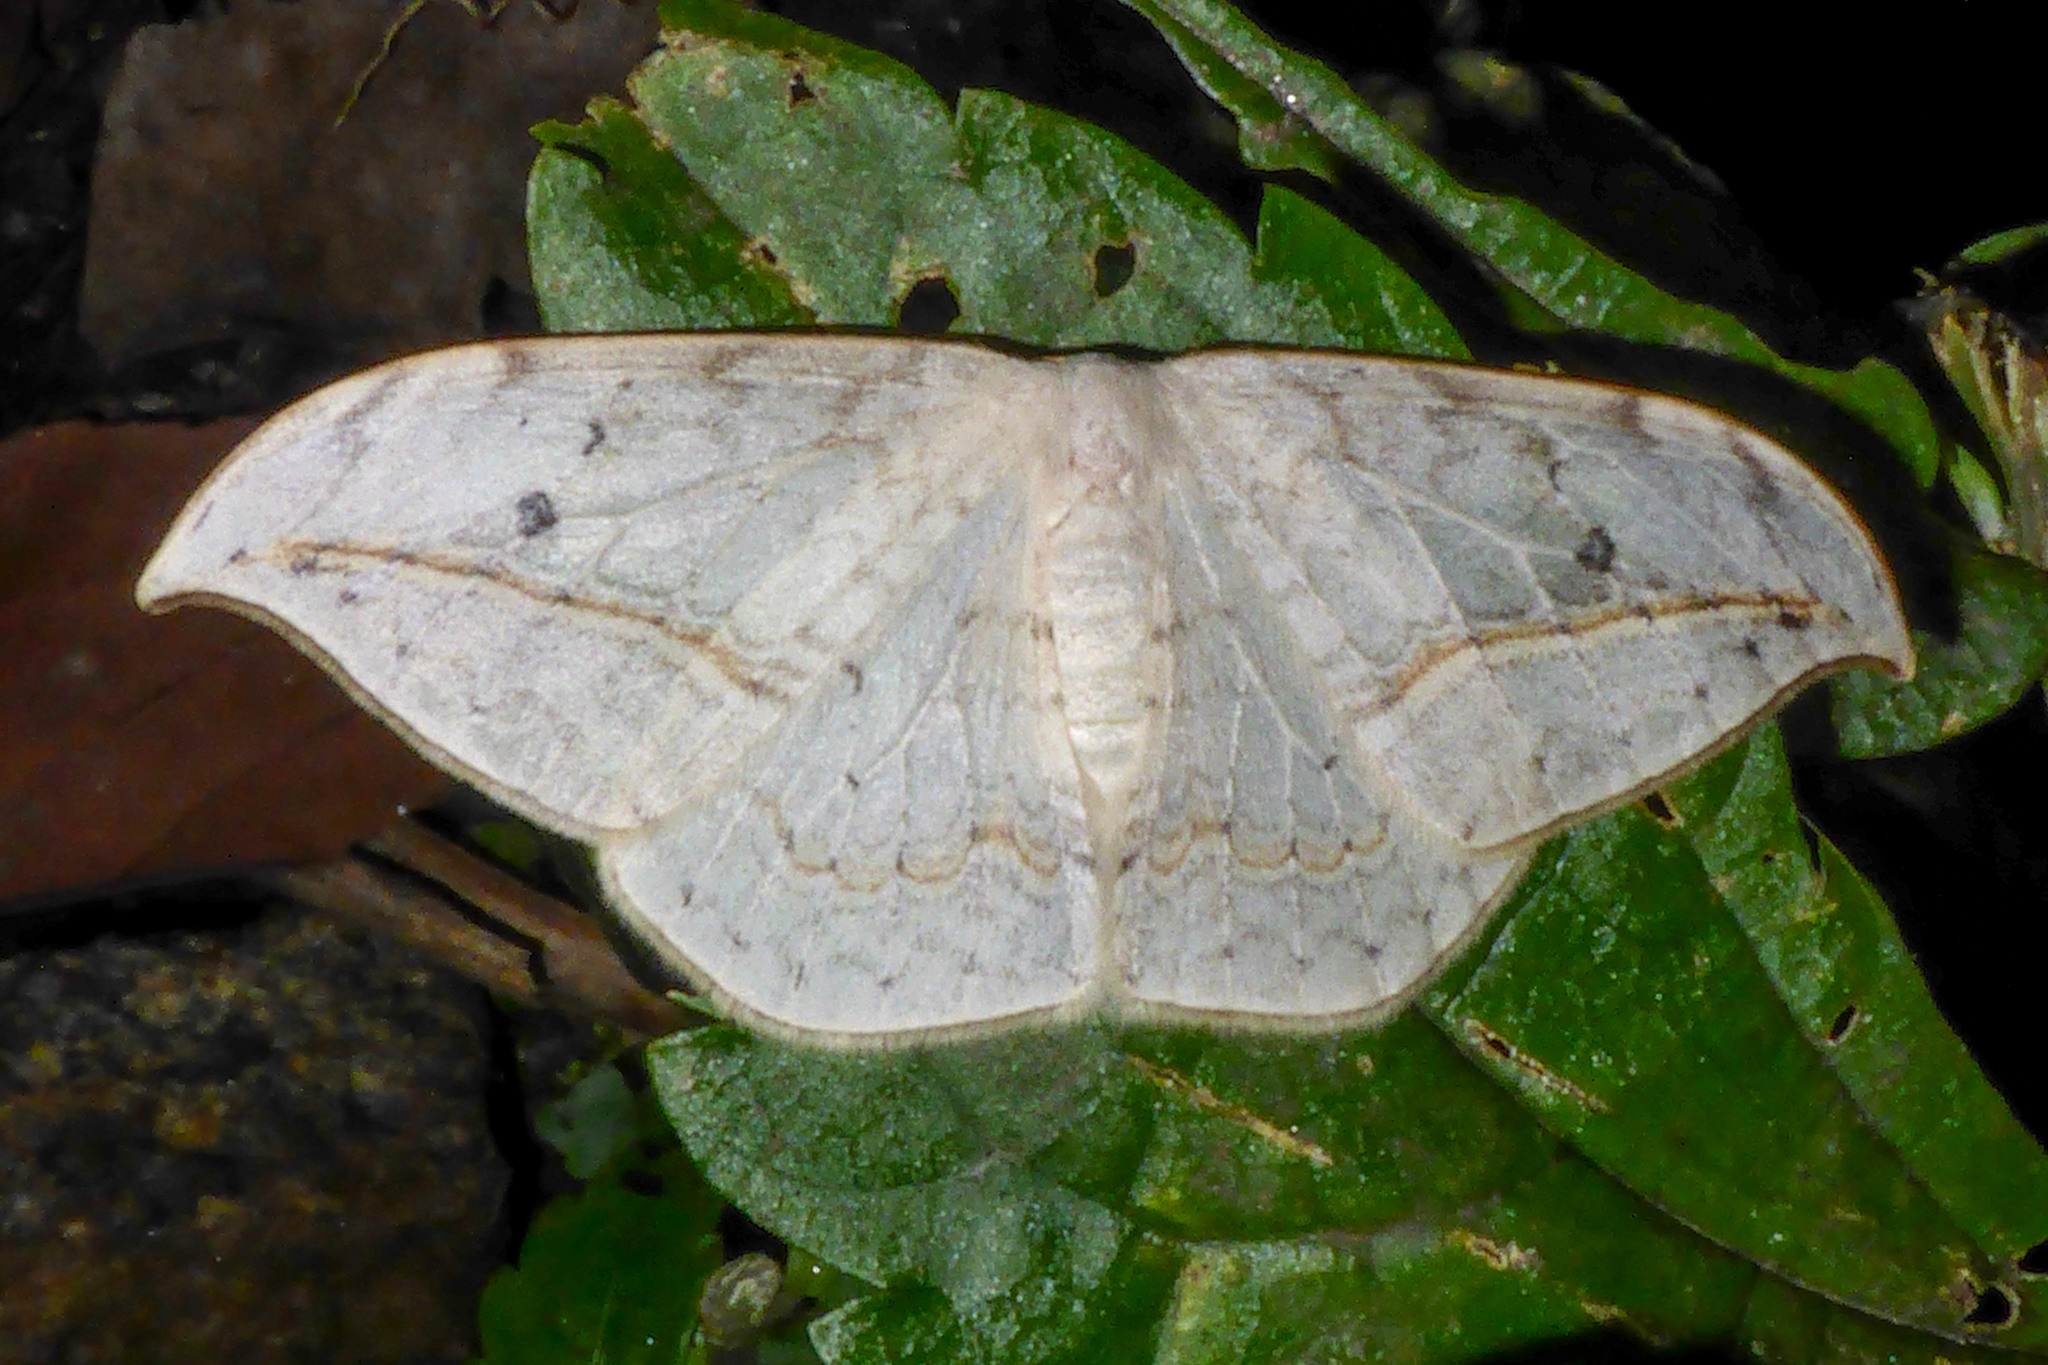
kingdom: Animalia
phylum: Arthropoda
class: Insecta
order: Lepidoptera
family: Drepanidae
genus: Drepana
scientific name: Drepana pallida
